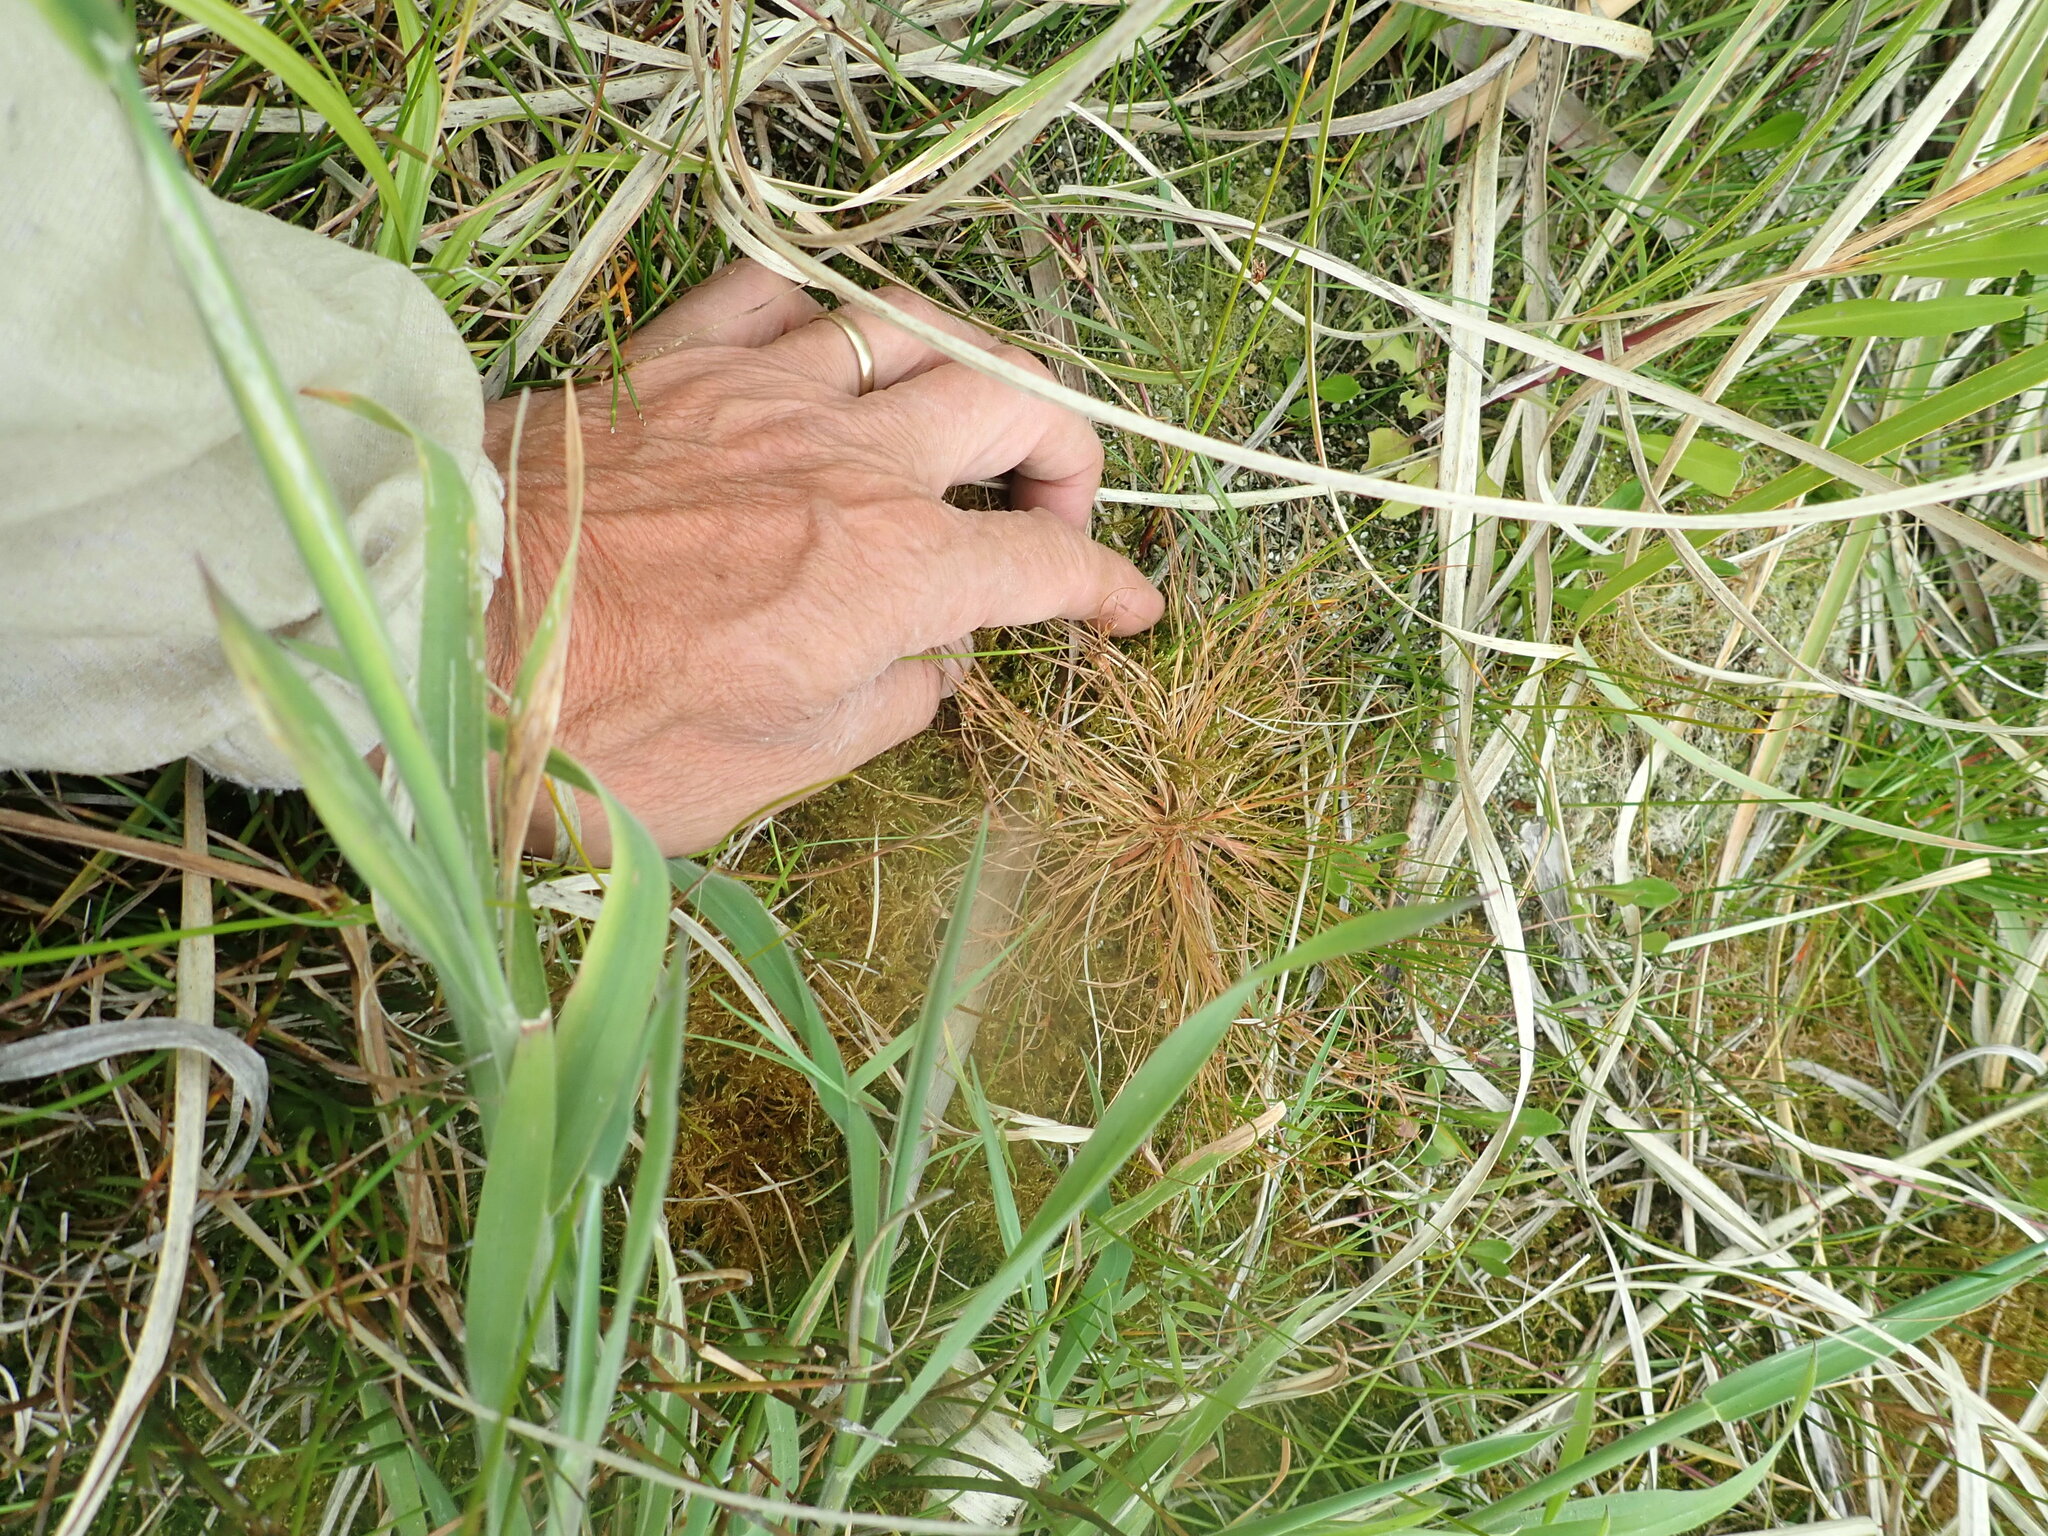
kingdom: Plantae
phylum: Tracheophyta
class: Liliopsida
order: Poales
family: Juncaceae
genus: Juncus
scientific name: Juncus bufonius
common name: Toad rush
